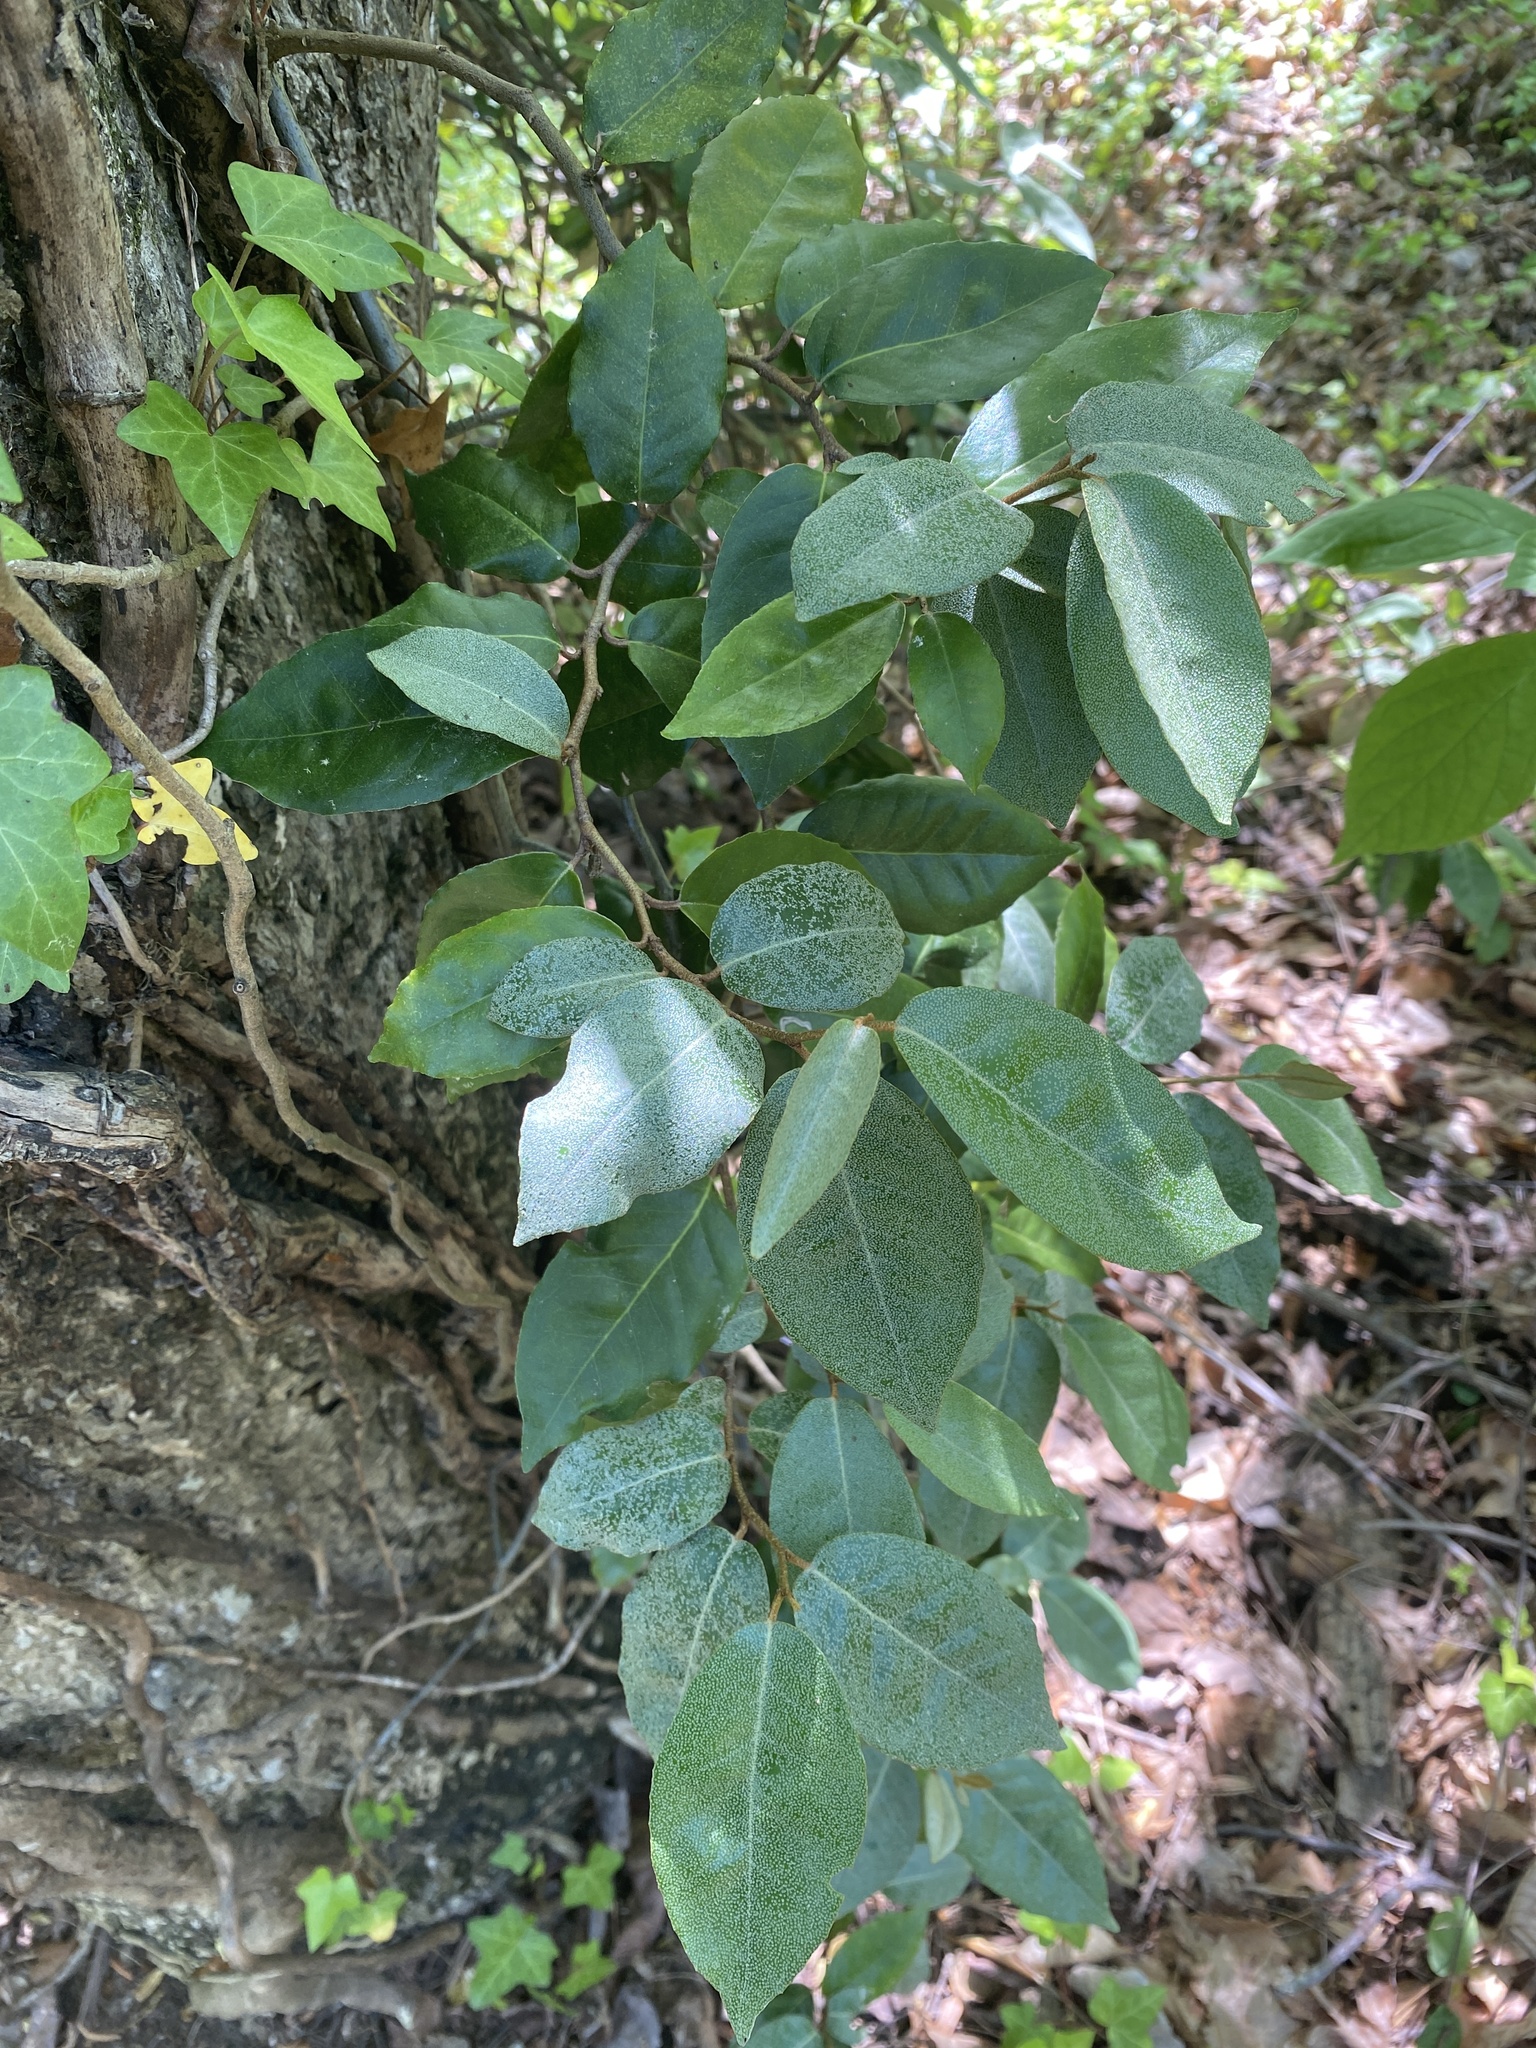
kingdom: Plantae
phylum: Tracheophyta
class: Magnoliopsida
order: Rosales
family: Elaeagnaceae
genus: Elaeagnus
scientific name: Elaeagnus pungens
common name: Spiny oleaster
